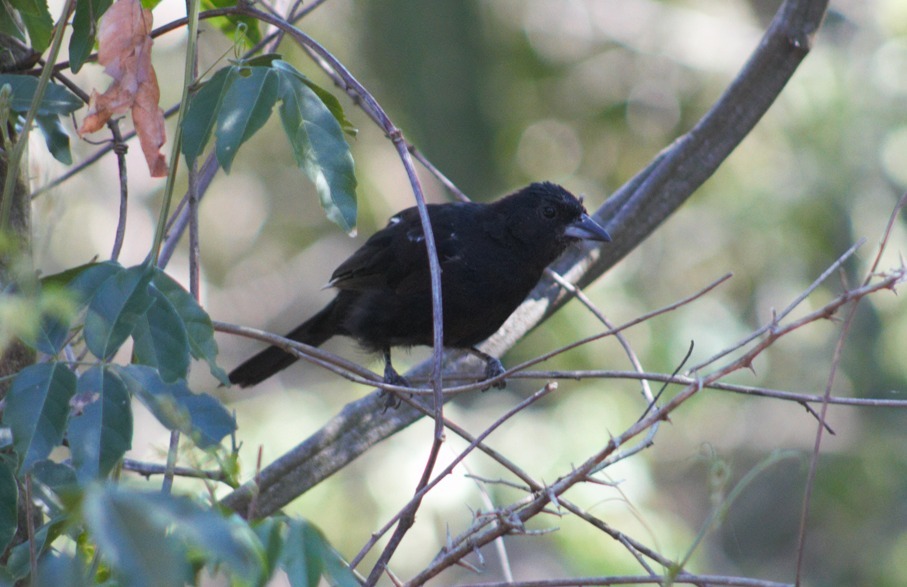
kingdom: Animalia
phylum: Chordata
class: Aves
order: Passeriformes
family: Thraupidae
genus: Tachyphonus
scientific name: Tachyphonus rufus
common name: White-lined tanager
